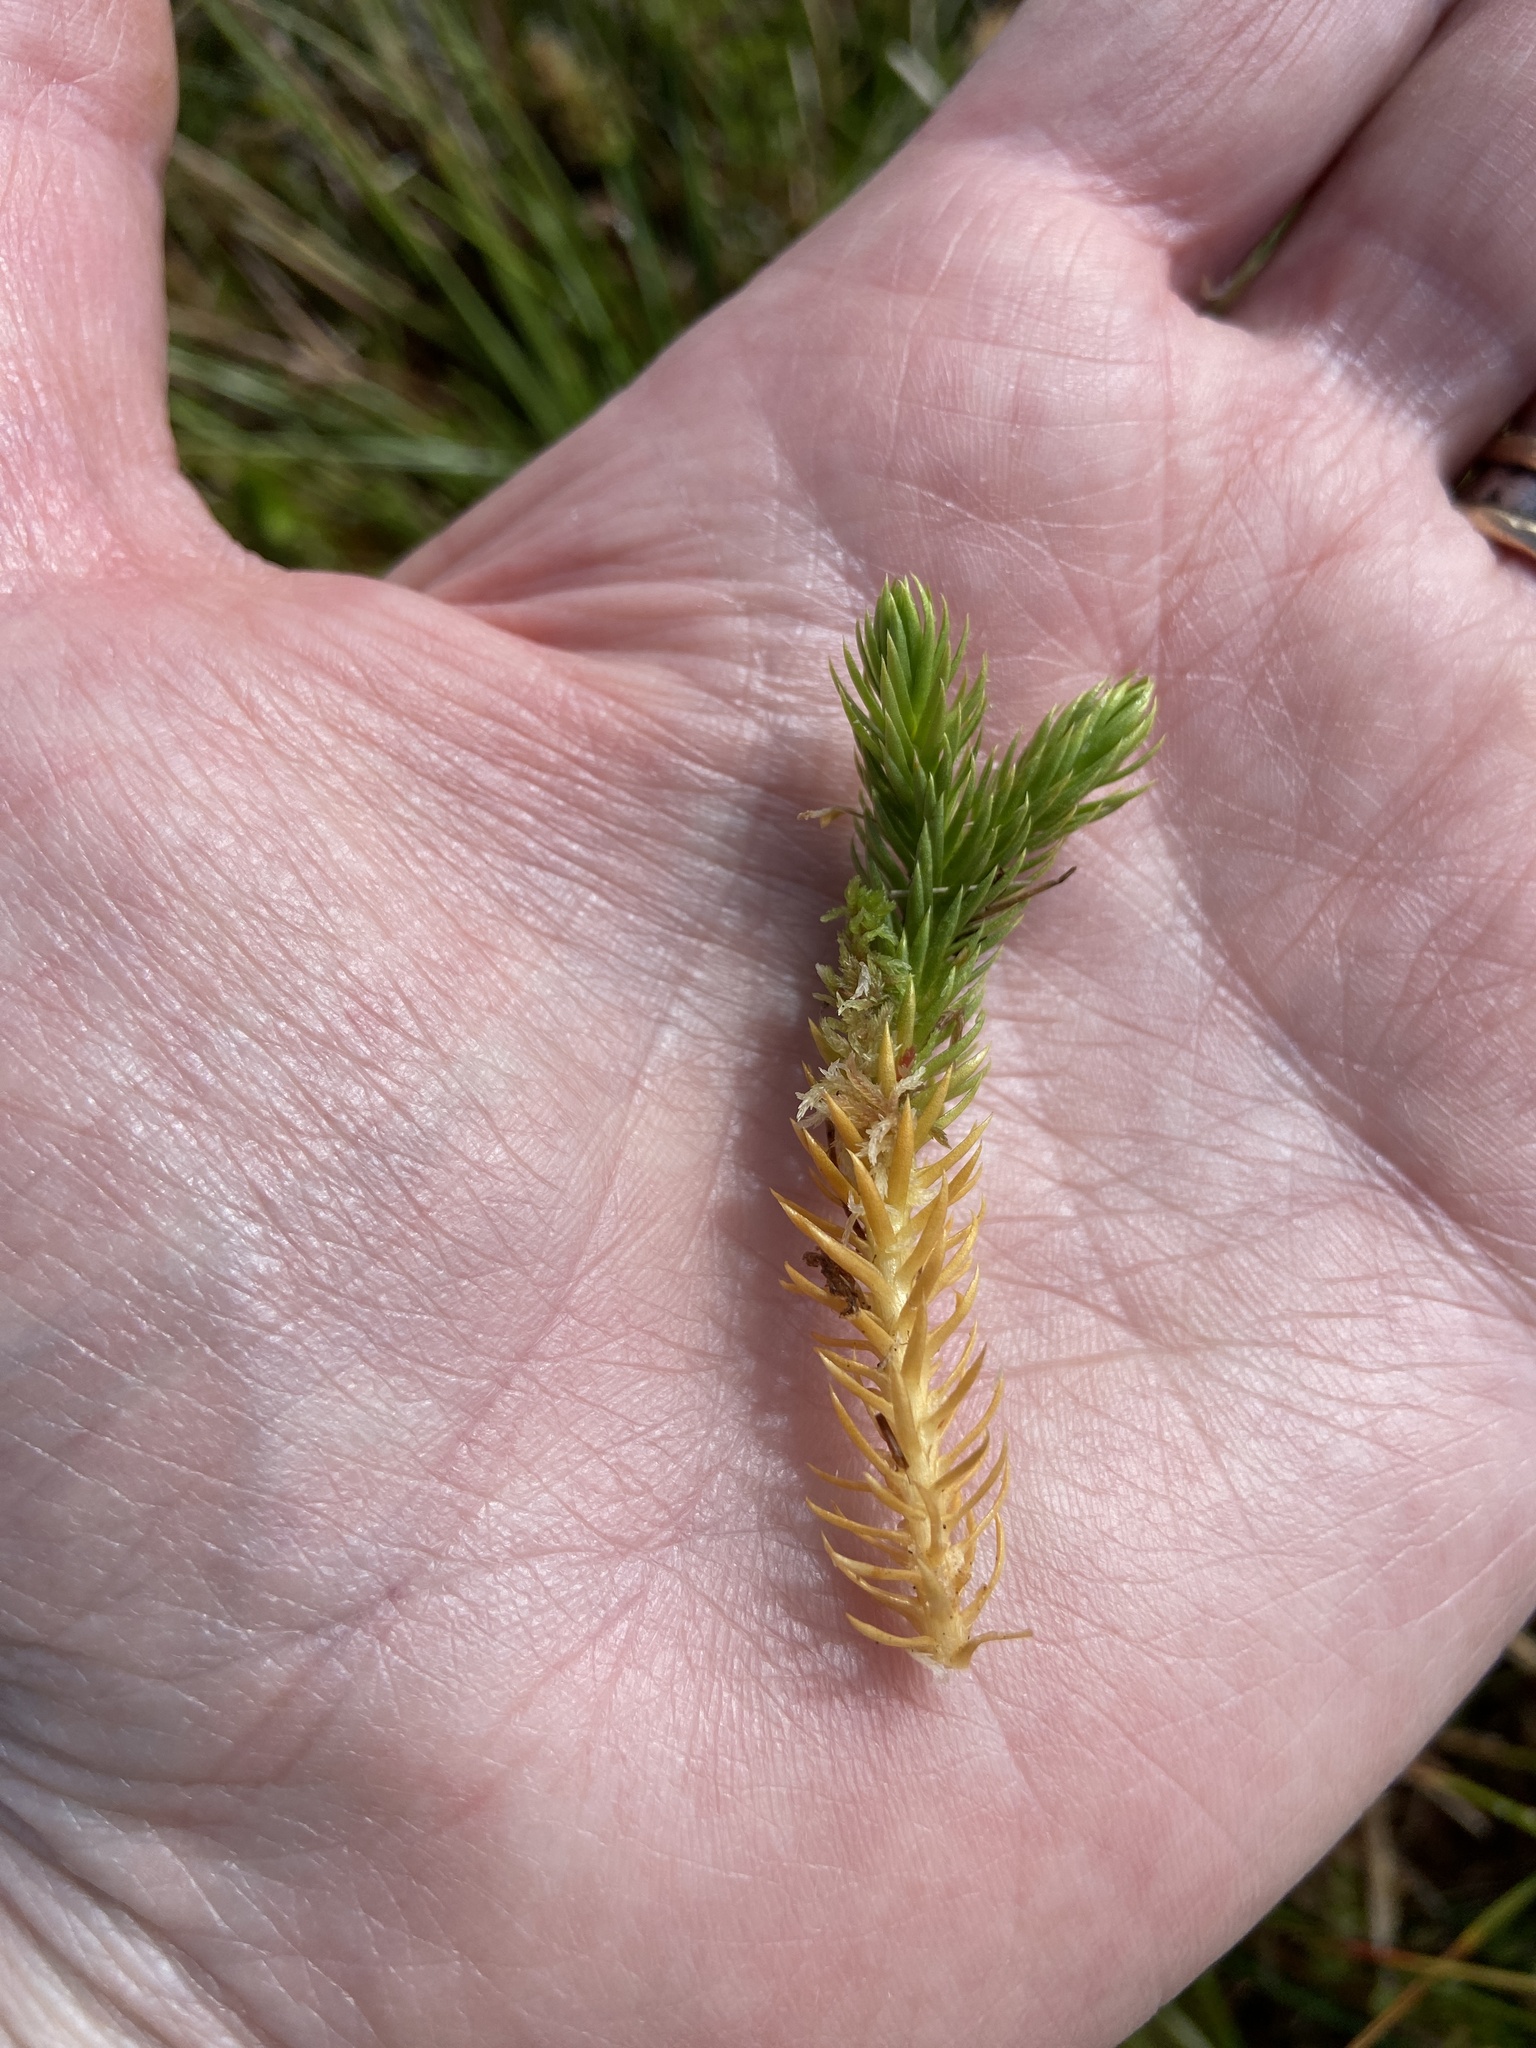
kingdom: Plantae
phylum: Tracheophyta
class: Lycopodiopsida
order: Lycopodiales
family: Lycopodiaceae
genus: Huperzia
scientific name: Huperzia selago
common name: Northern firmoss
